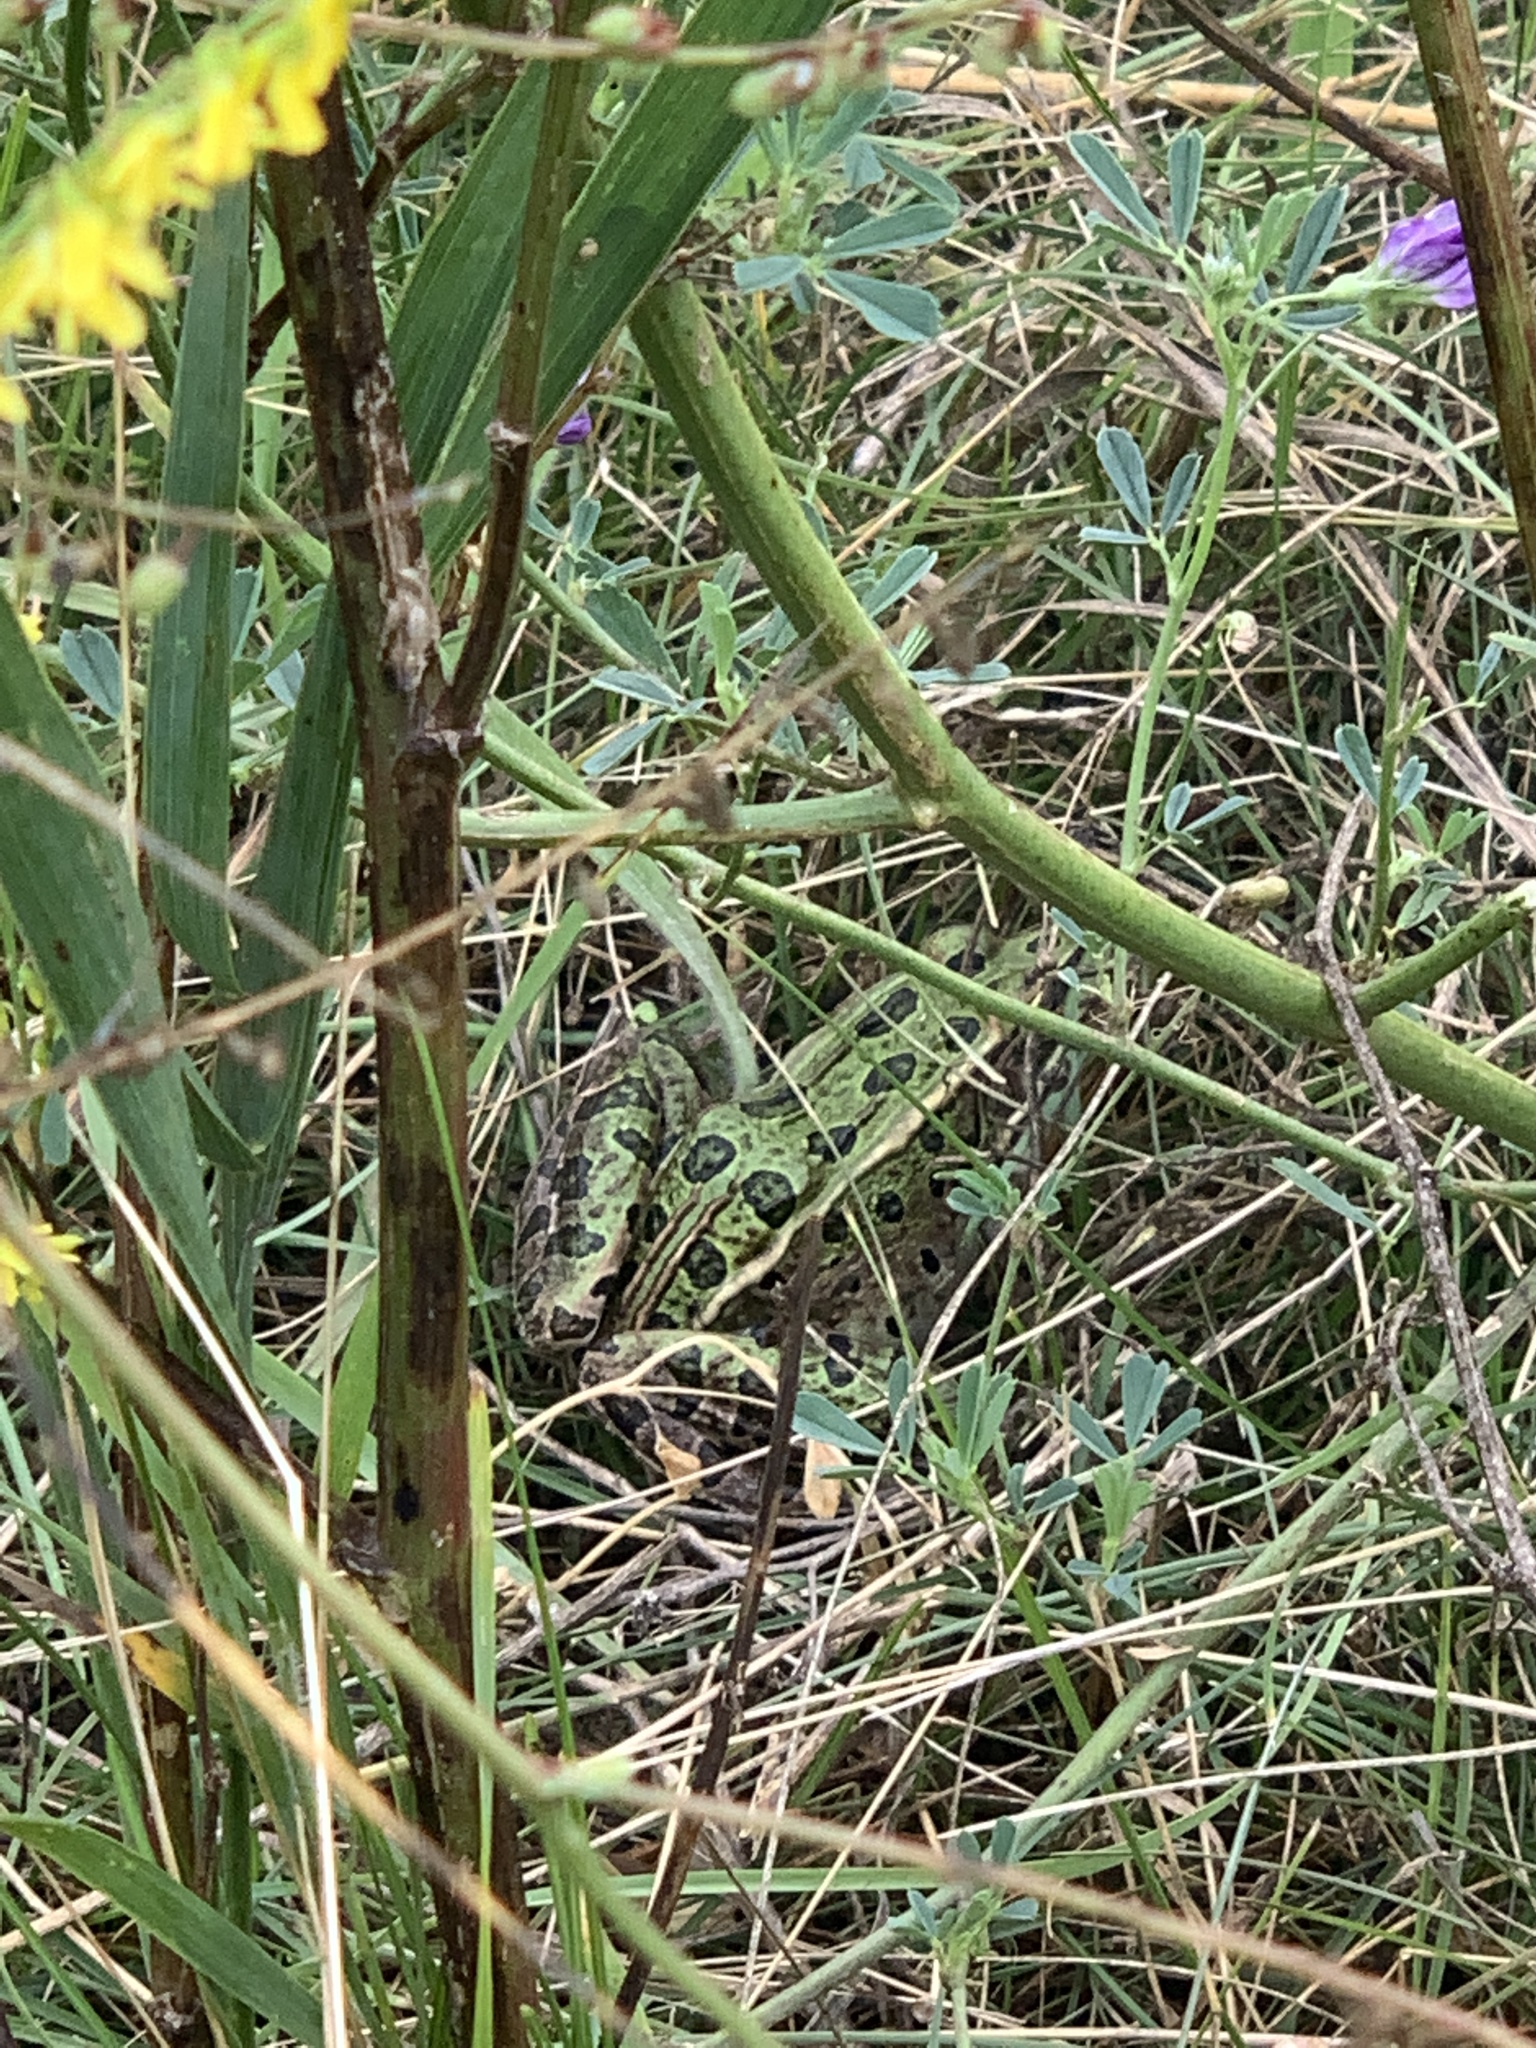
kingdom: Animalia
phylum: Chordata
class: Amphibia
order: Anura
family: Ranidae
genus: Lithobates
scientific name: Lithobates pipiens
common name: Northern leopard frog
